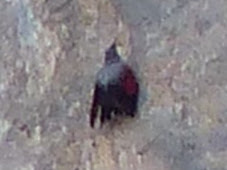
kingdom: Animalia
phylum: Chordata
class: Aves
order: Passeriformes
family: Tichodromidae
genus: Tichodroma
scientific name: Tichodroma muraria
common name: Wallcreeper
